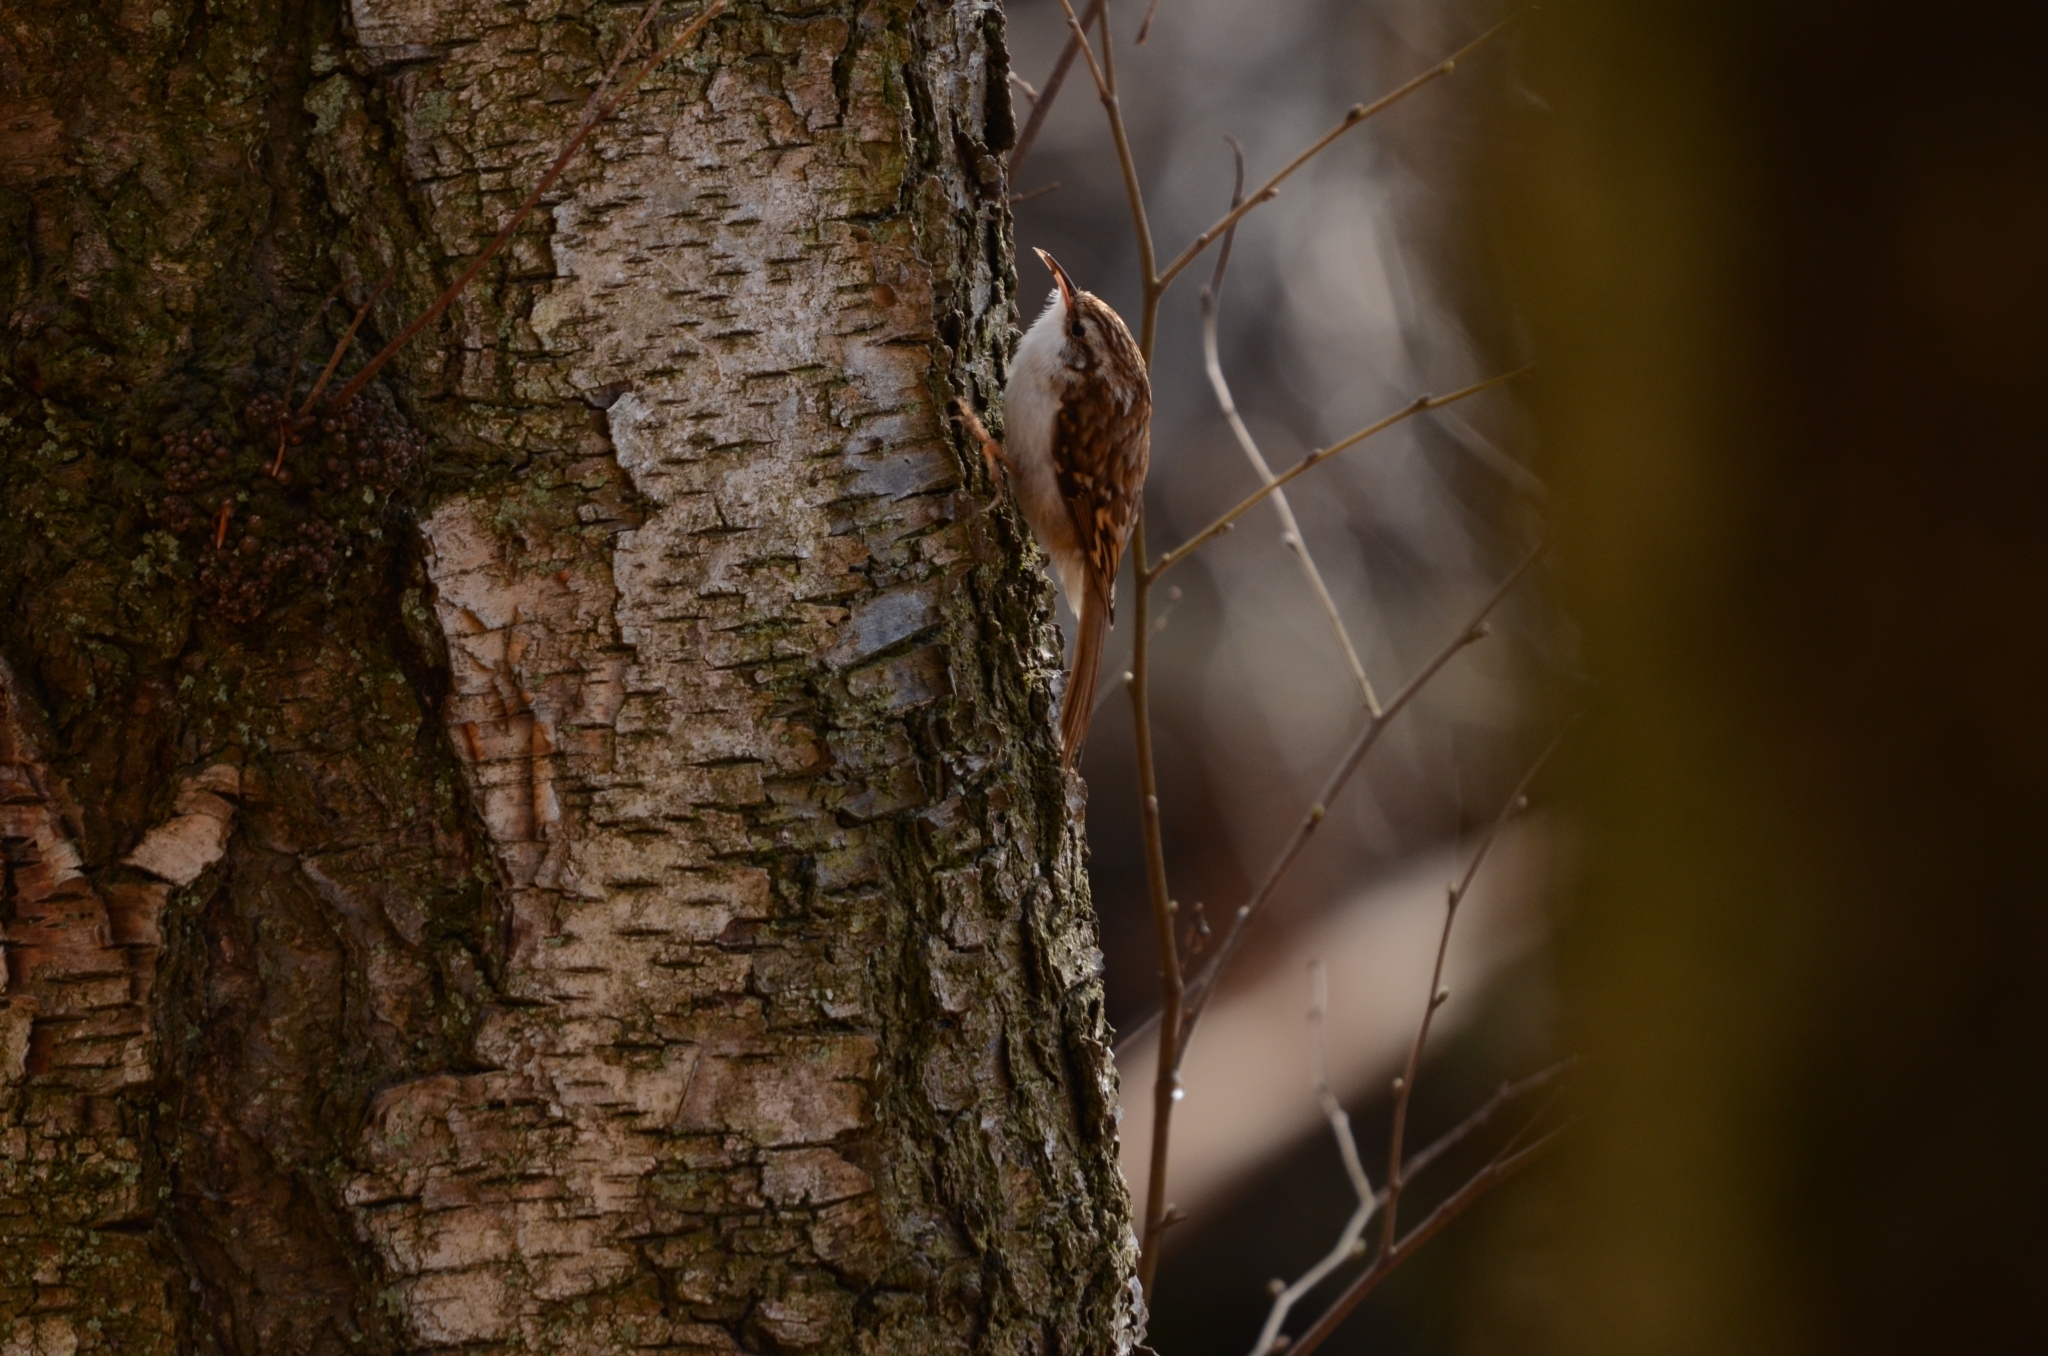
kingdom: Animalia
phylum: Chordata
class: Aves
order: Passeriformes
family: Certhiidae
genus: Certhia
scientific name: Certhia brachydactyla
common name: Short-toed treecreeper
